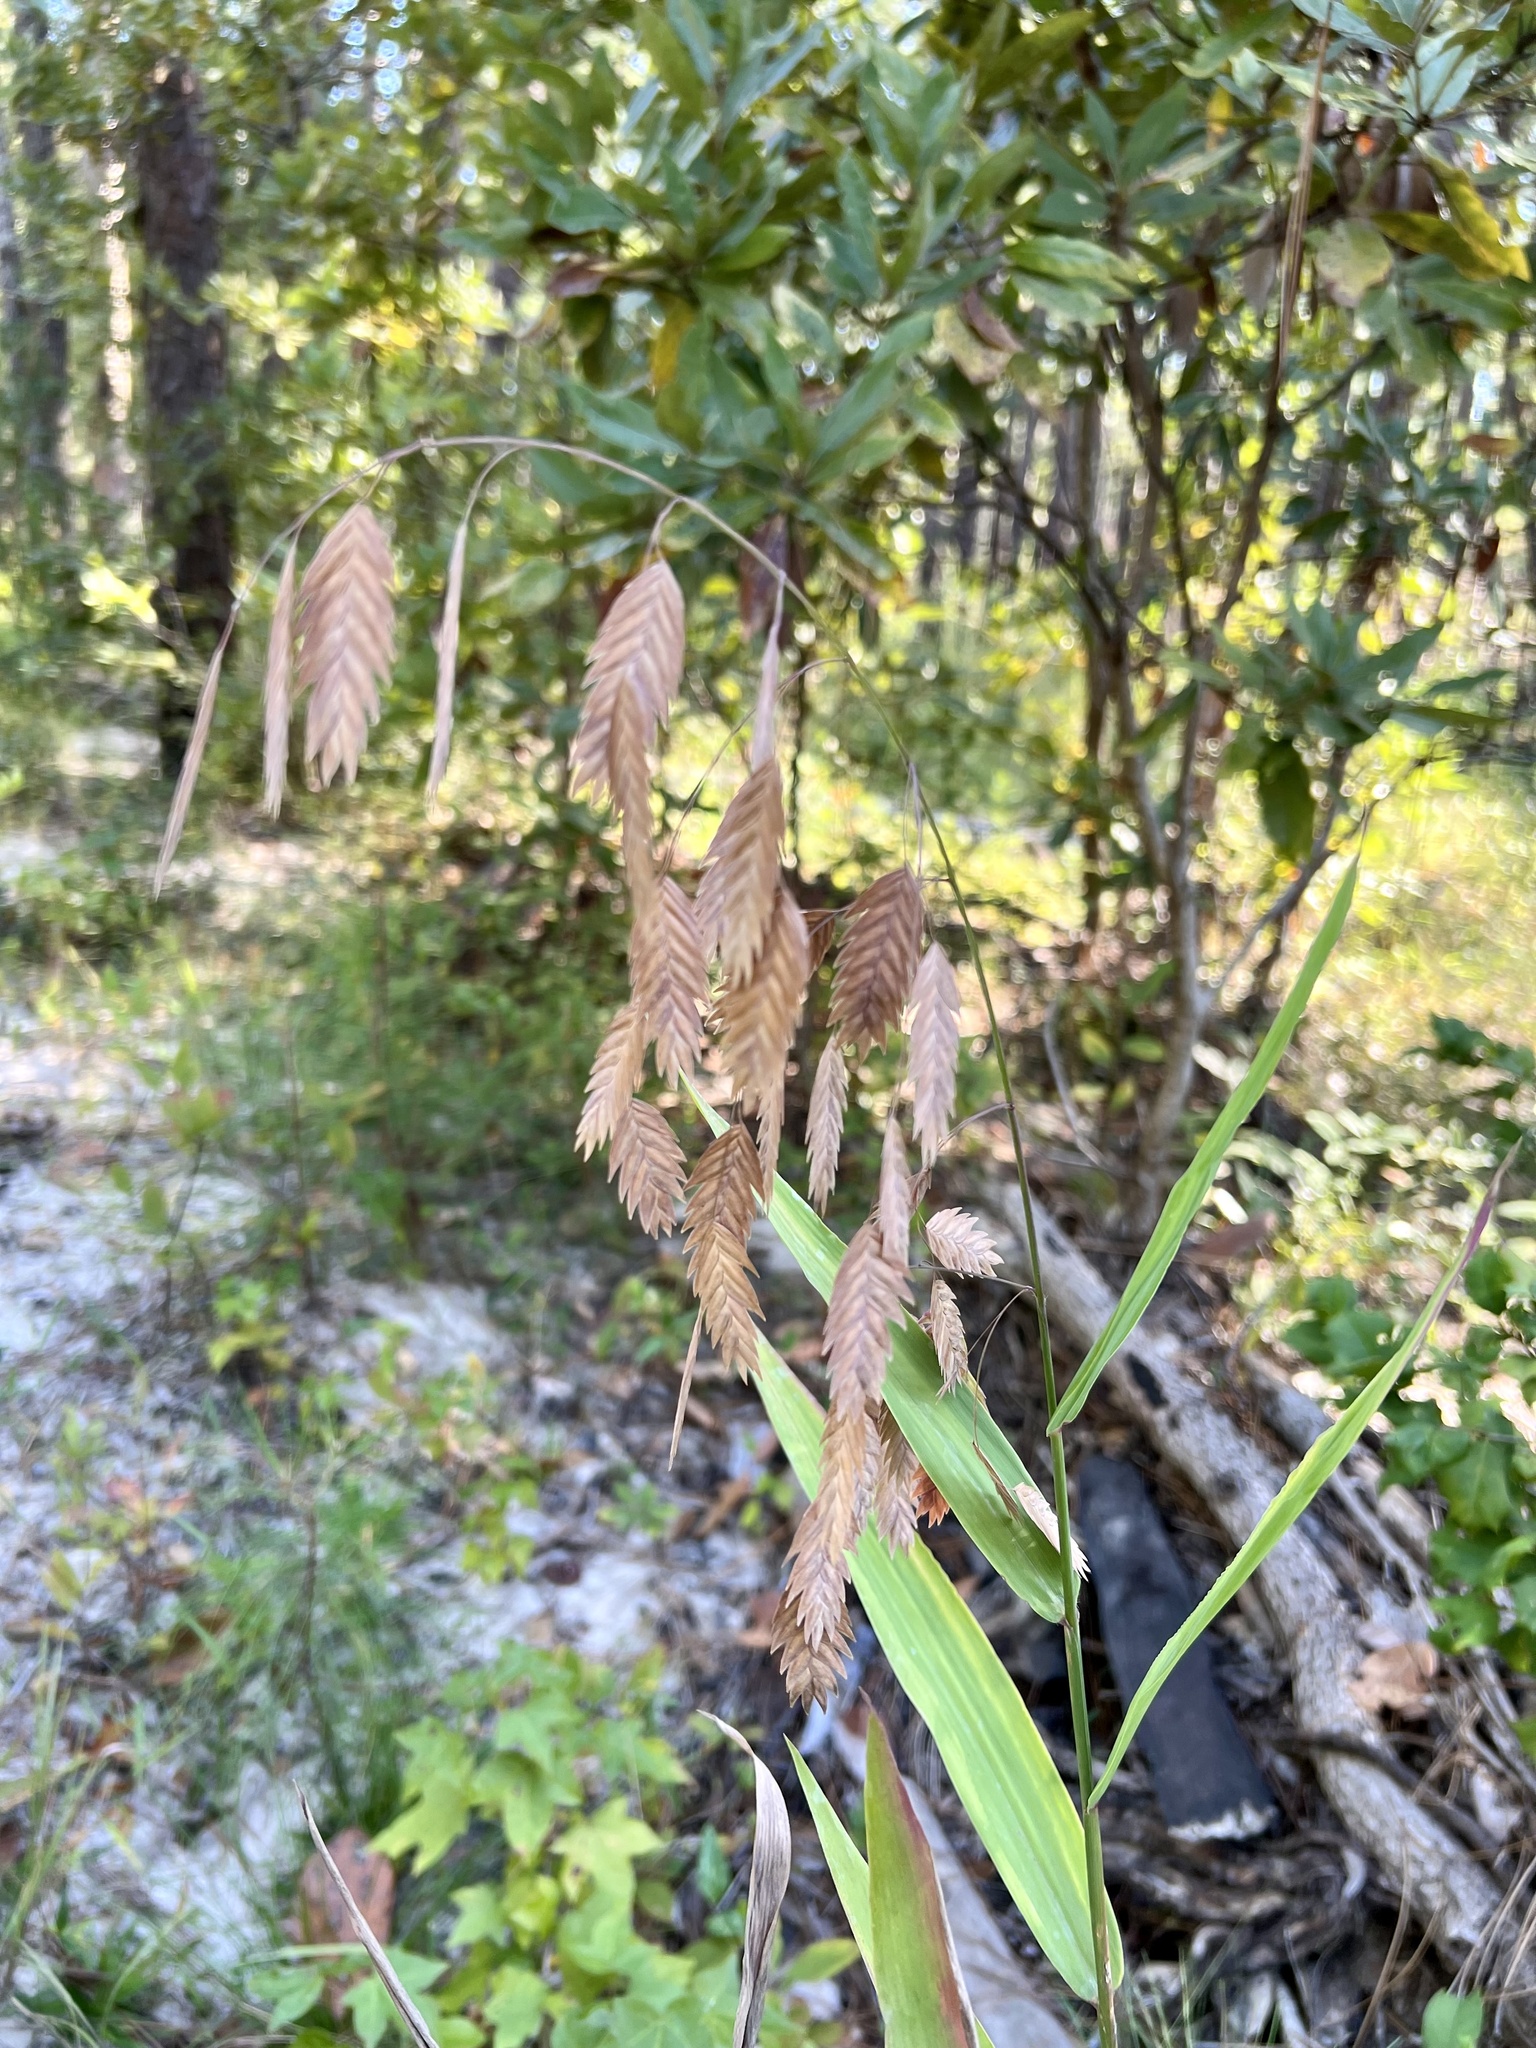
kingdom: Plantae
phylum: Tracheophyta
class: Liliopsida
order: Poales
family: Poaceae
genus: Chasmanthium
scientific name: Chasmanthium latifolium
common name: Broad-leaved chasmanthium
